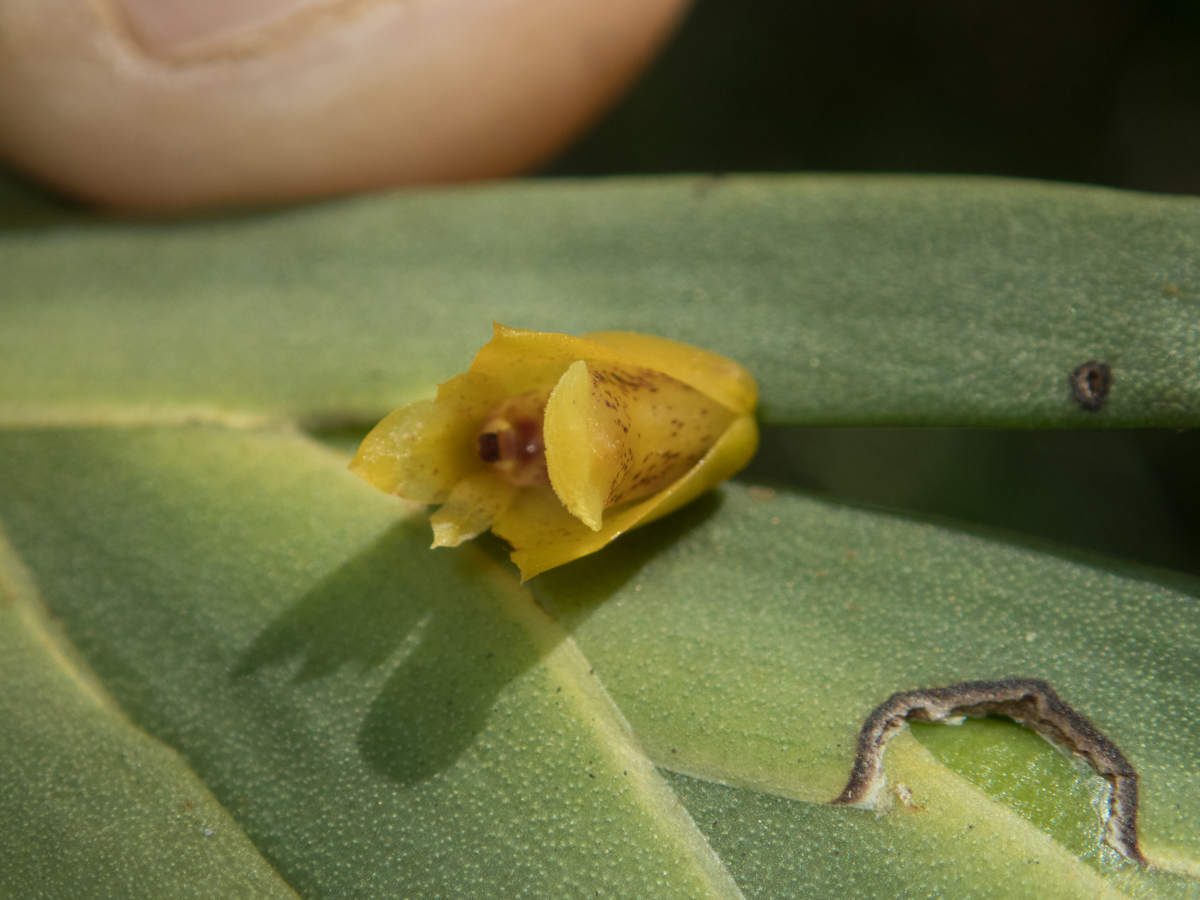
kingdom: Plantae
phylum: Tracheophyta
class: Liliopsida
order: Asparagales
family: Orchidaceae
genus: Oxystophyllum
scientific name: Oxystophyllum carnosum
